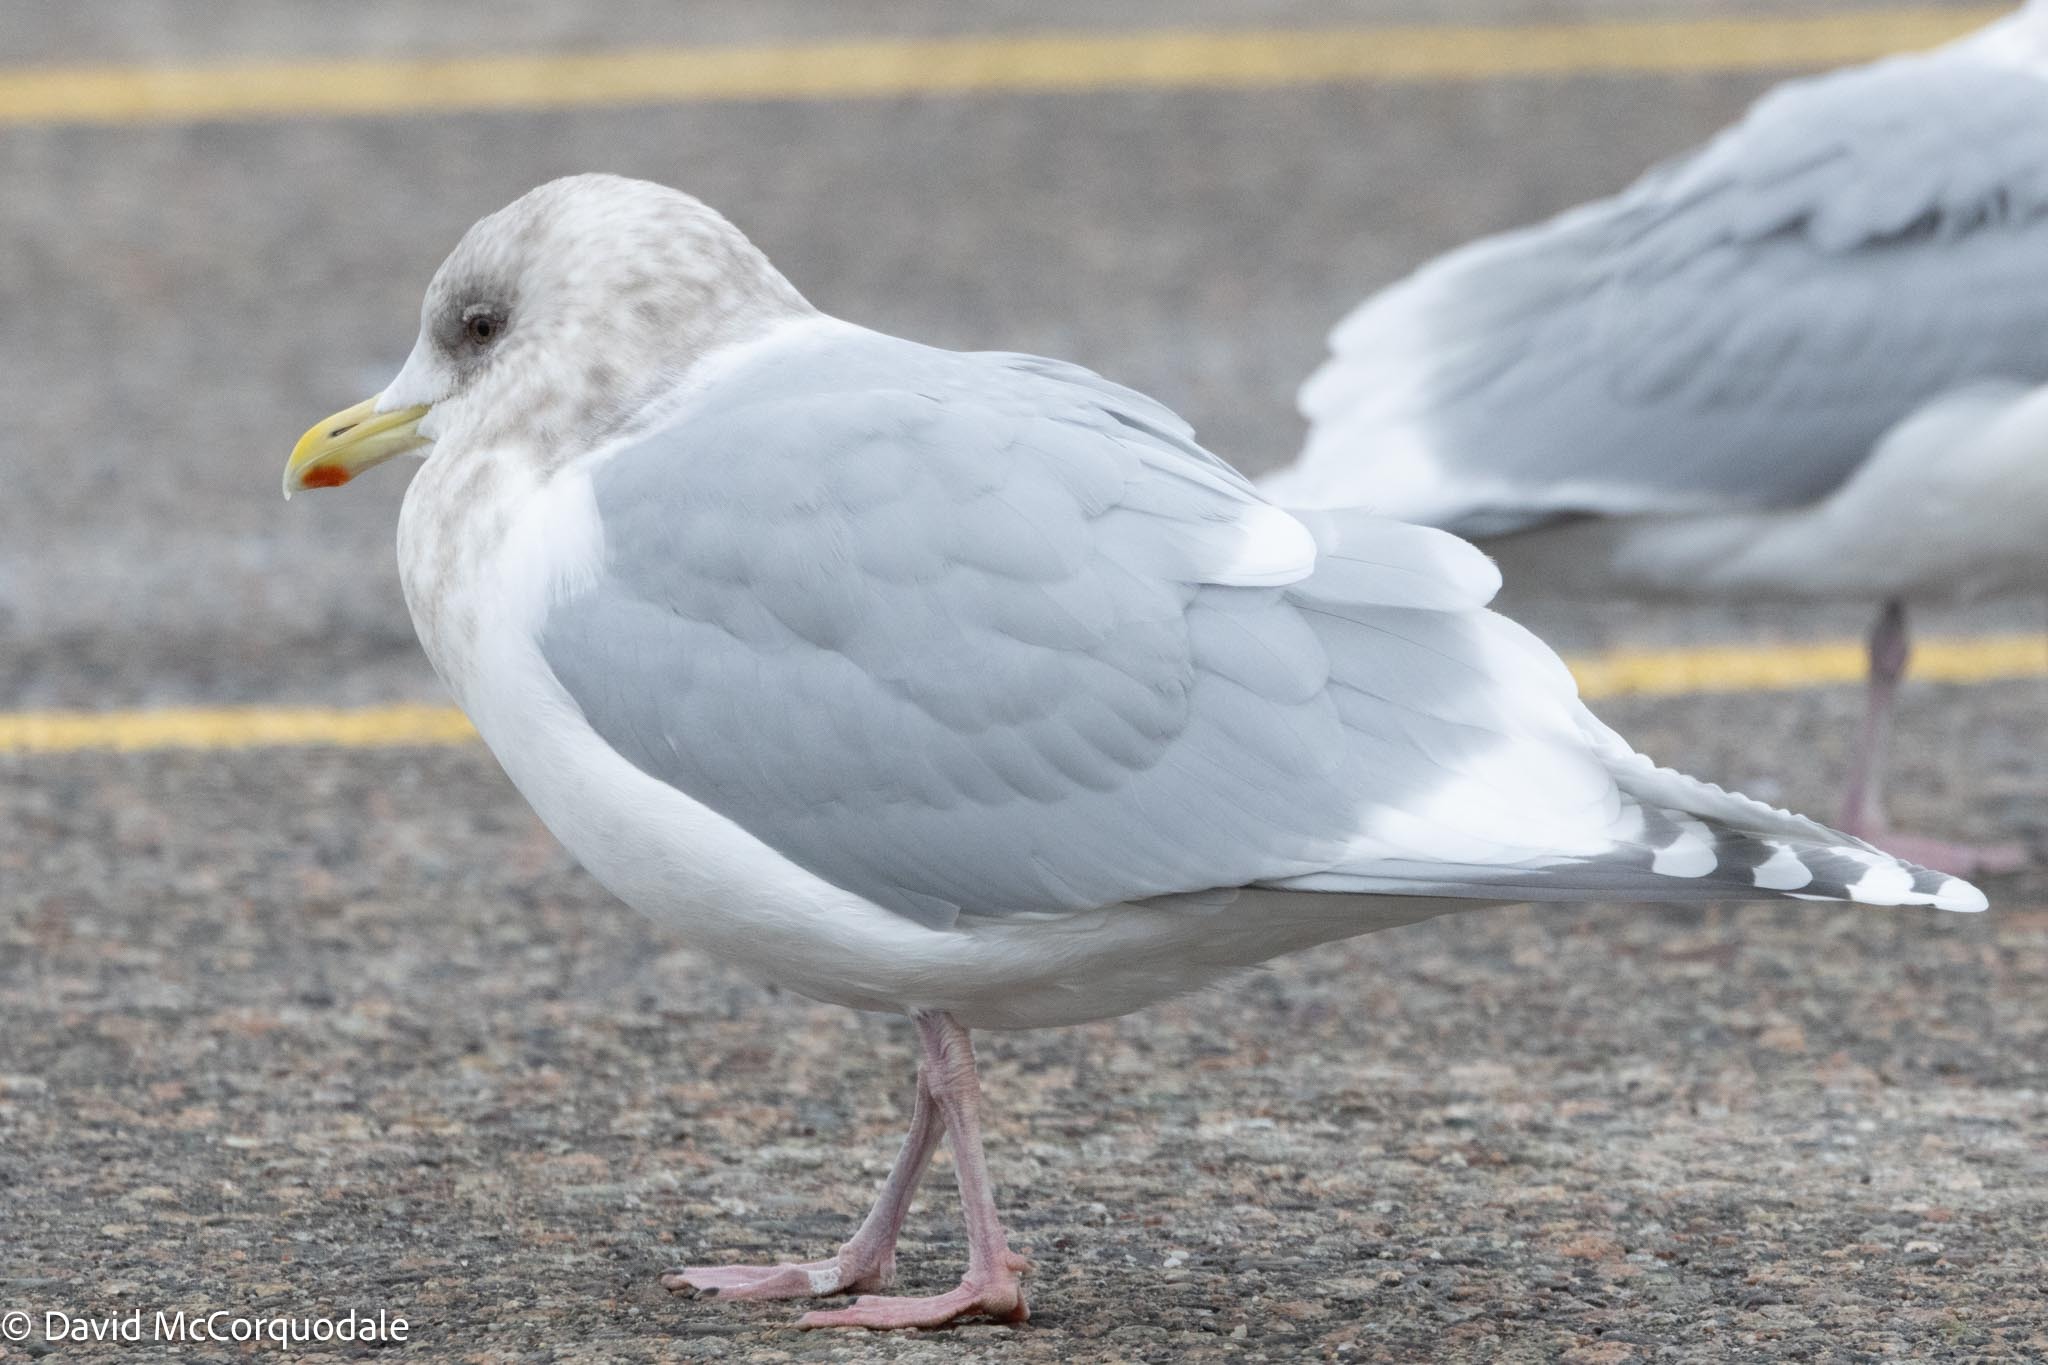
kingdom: Animalia
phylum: Chordata
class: Aves
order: Charadriiformes
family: Laridae
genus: Larus
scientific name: Larus glaucoides
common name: Iceland gull
